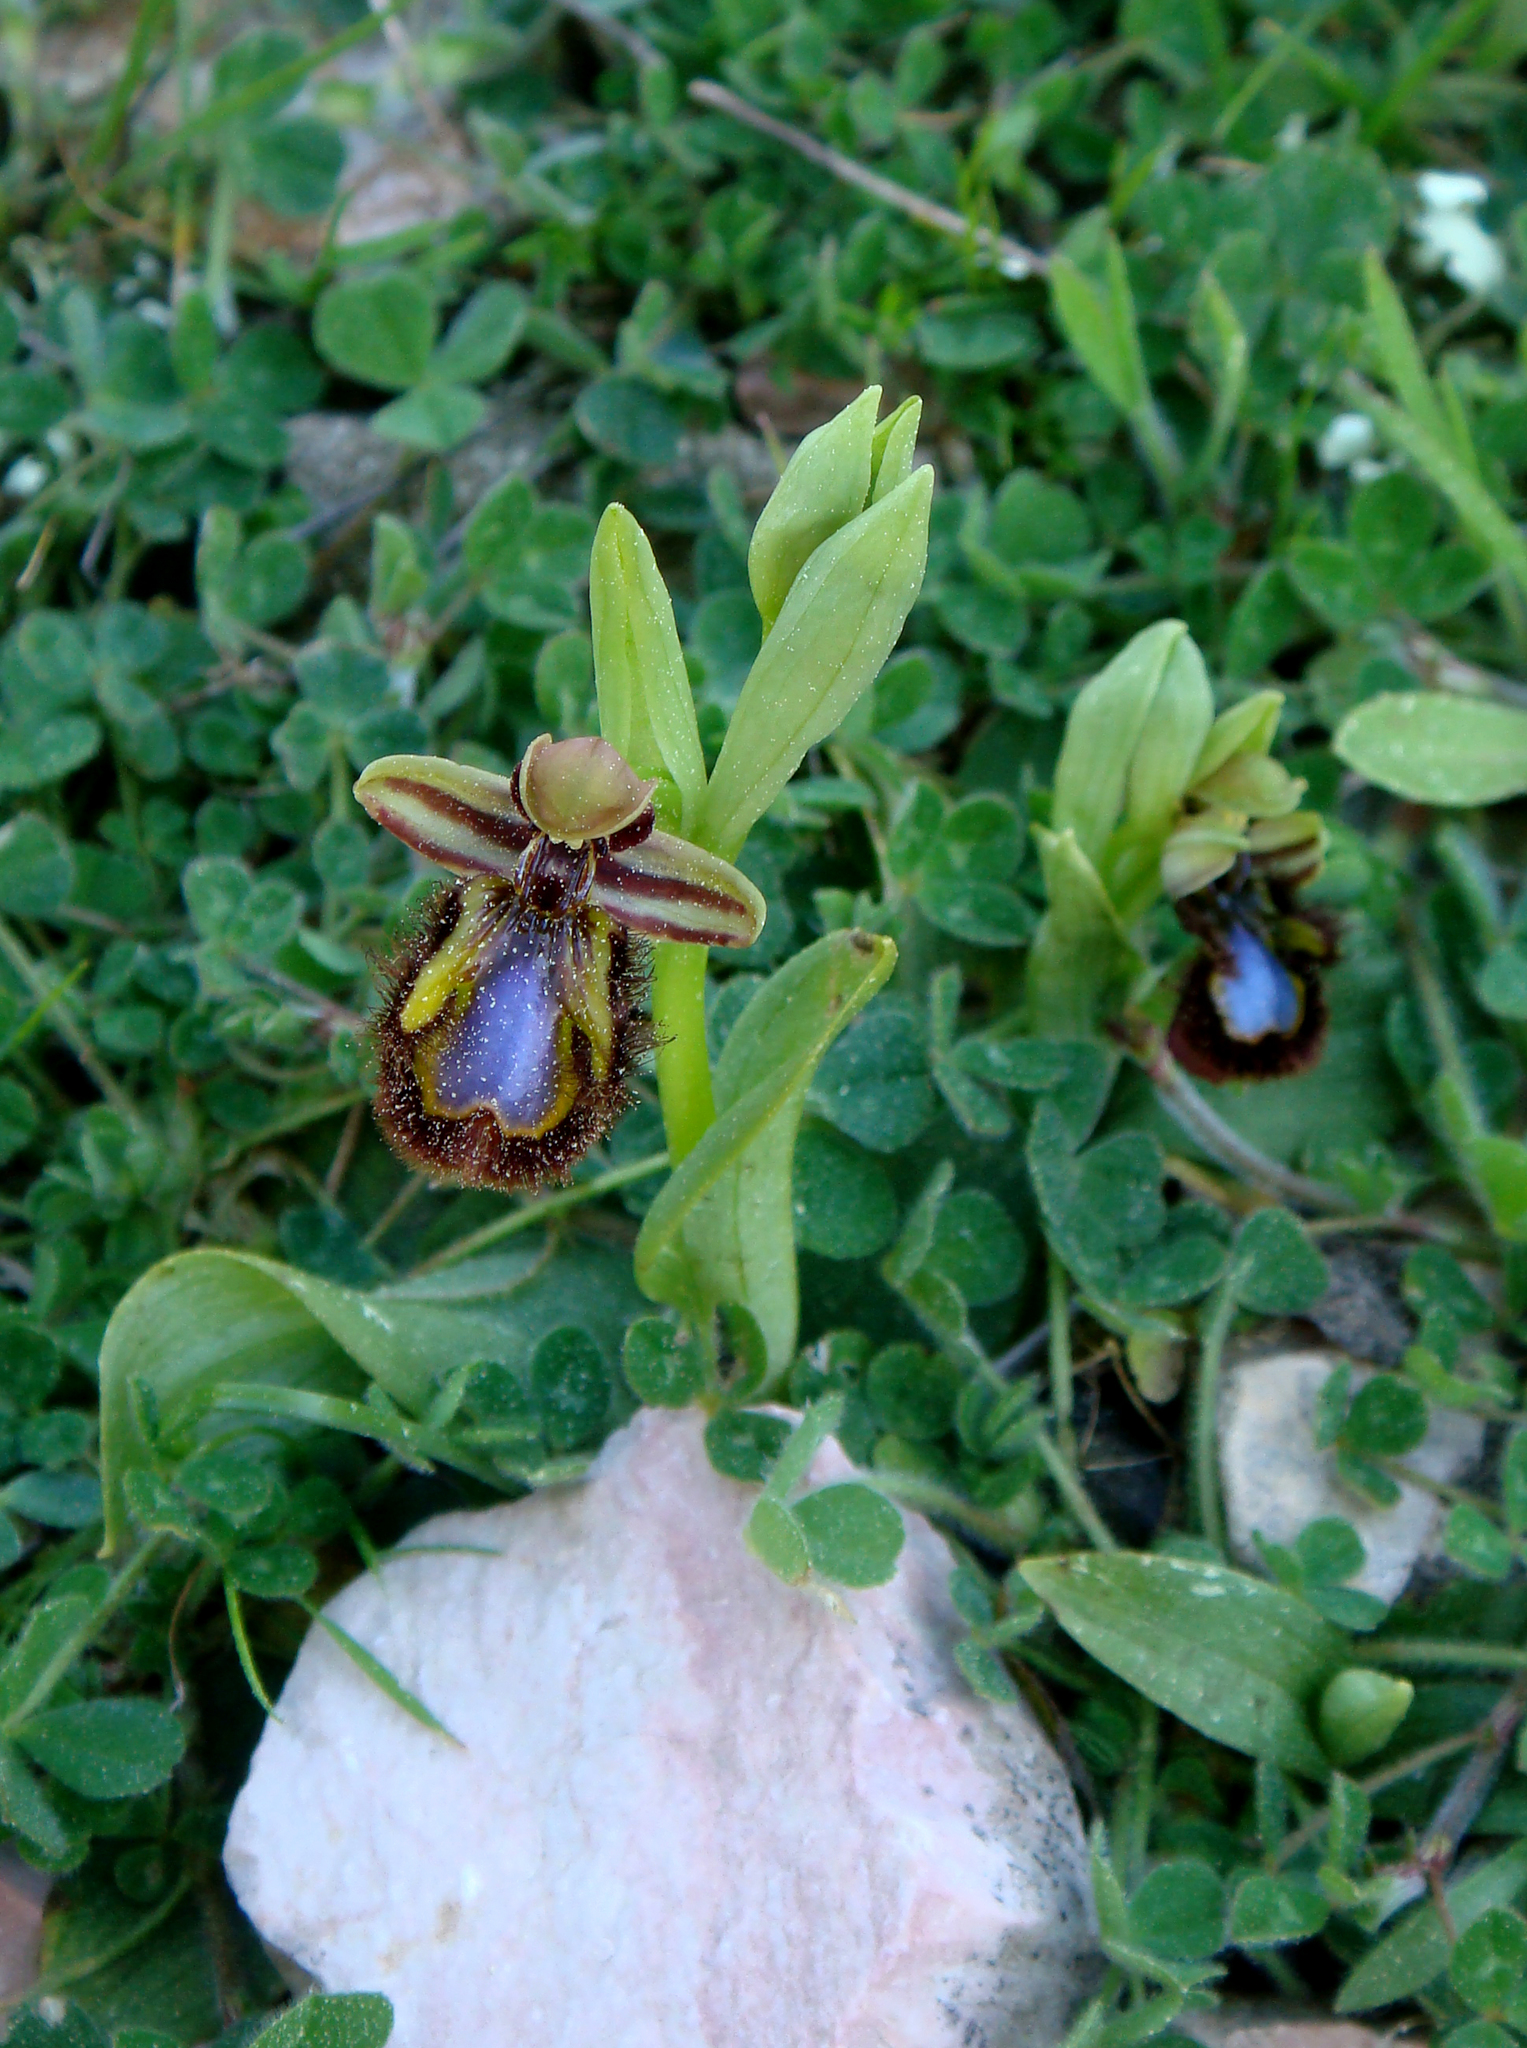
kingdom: Plantae
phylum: Tracheophyta
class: Liliopsida
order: Asparagales
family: Orchidaceae
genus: Ophrys
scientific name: Ophrys speculum
